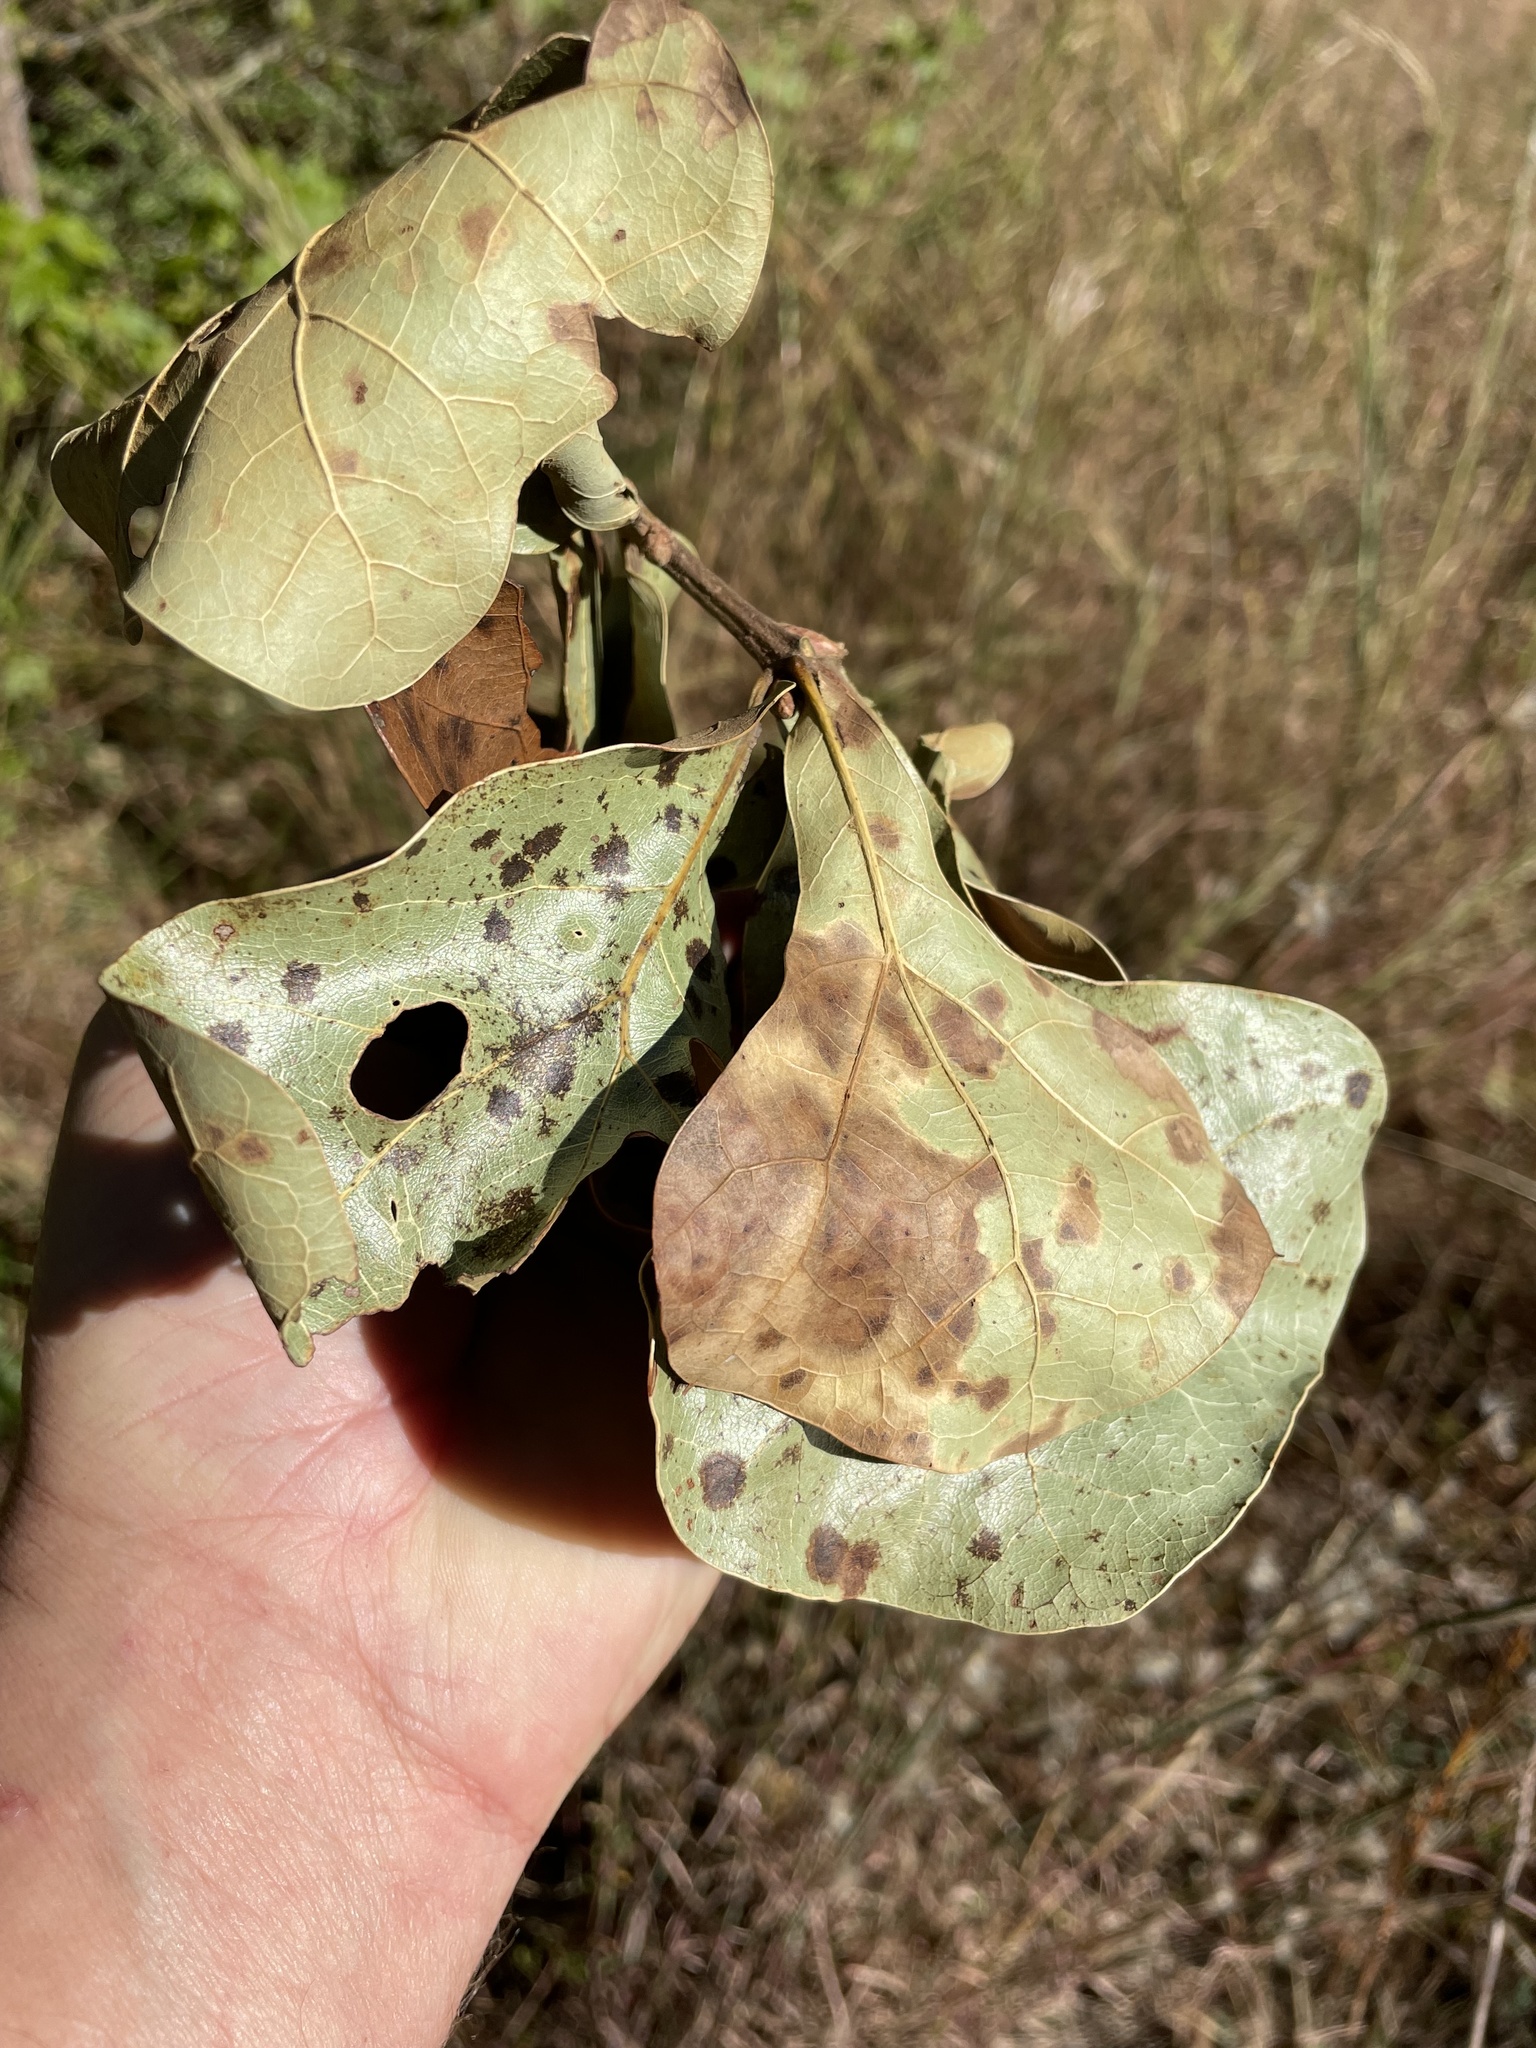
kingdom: Plantae
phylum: Tracheophyta
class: Magnoliopsida
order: Fagales
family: Fagaceae
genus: Quercus
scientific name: Quercus marilandica
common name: Blackjack oak
